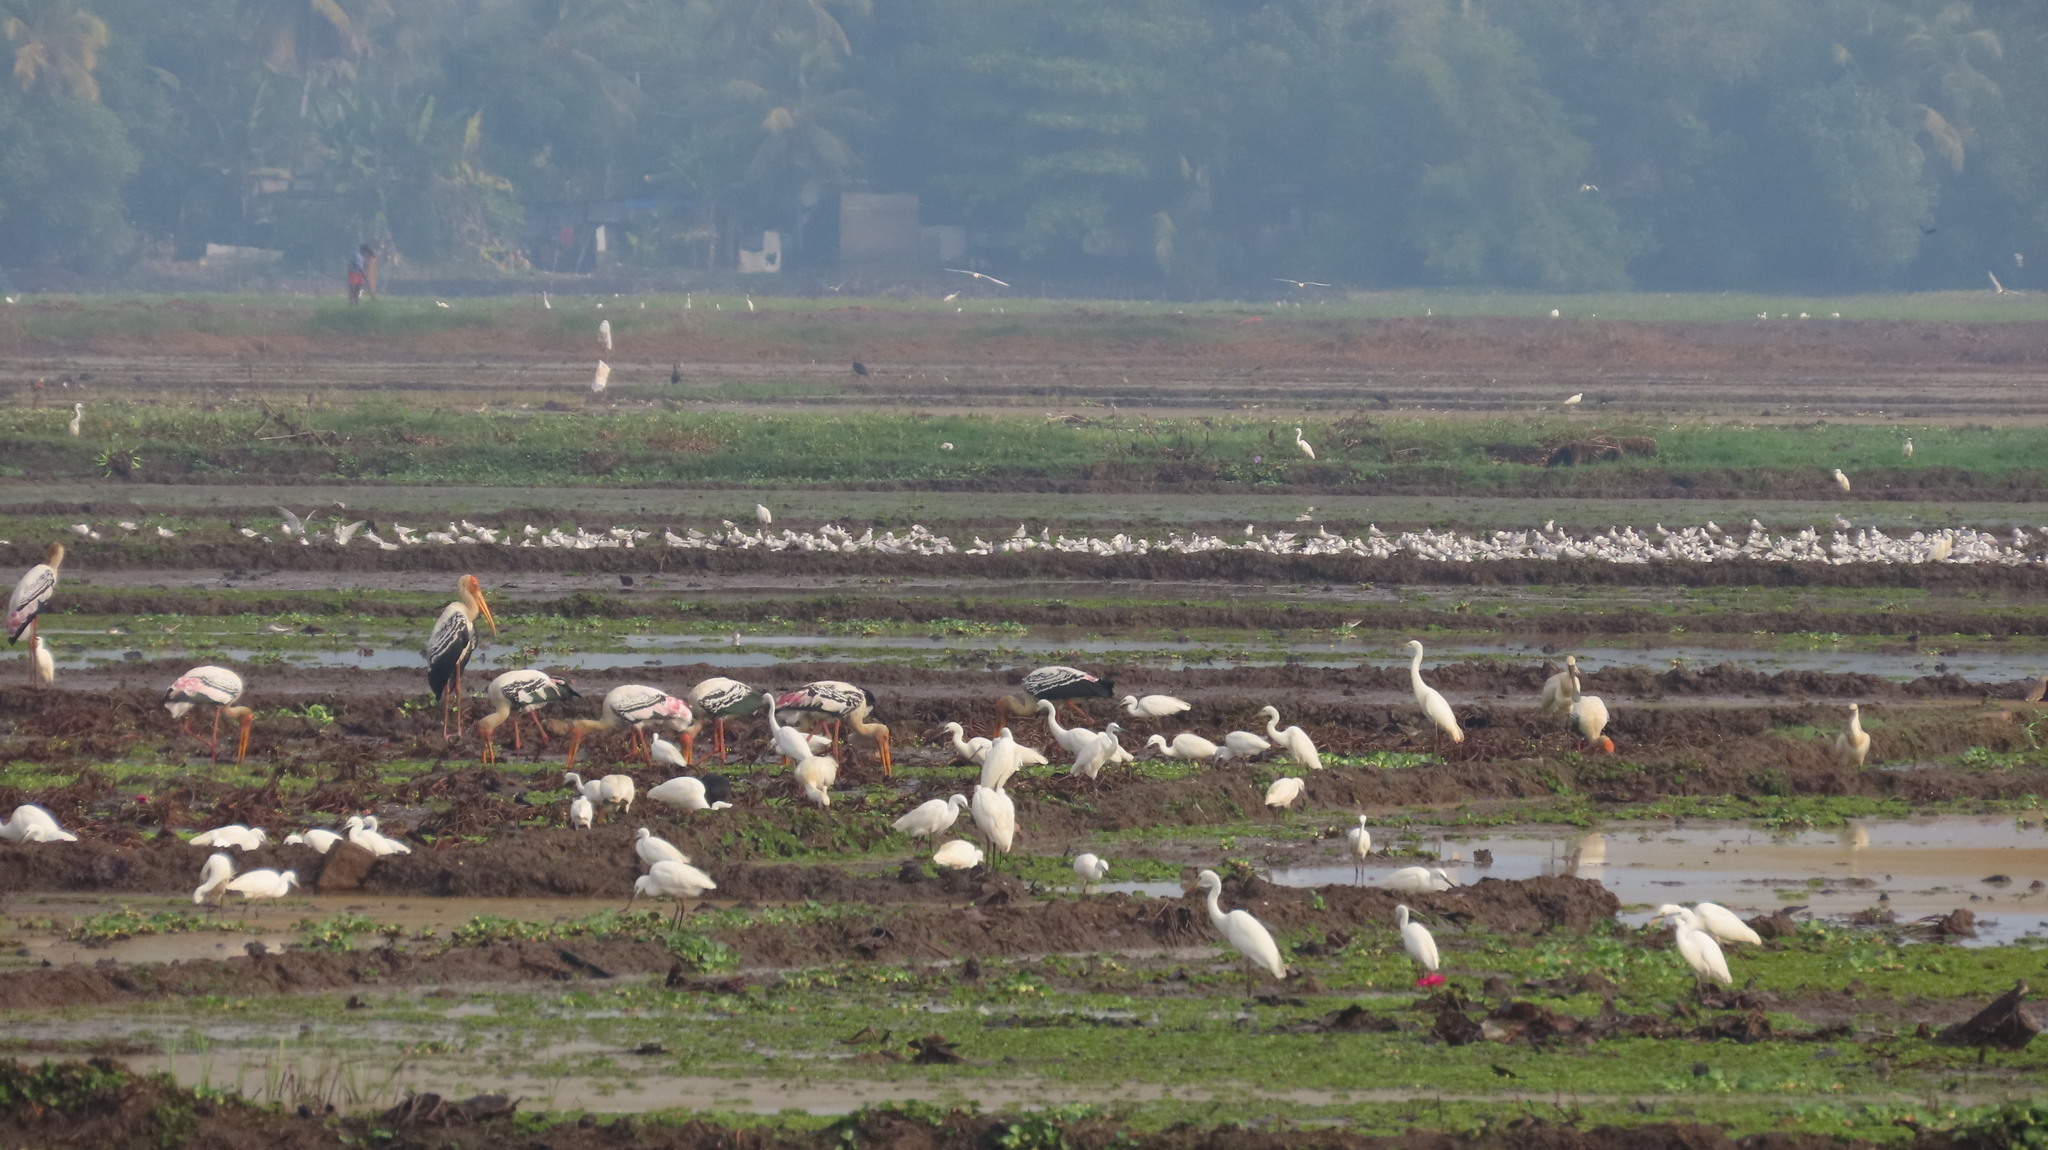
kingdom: Animalia
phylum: Chordata
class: Aves
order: Pelecaniformes
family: Ardeidae
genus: Egretta
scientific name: Egretta garzetta
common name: Little egret
